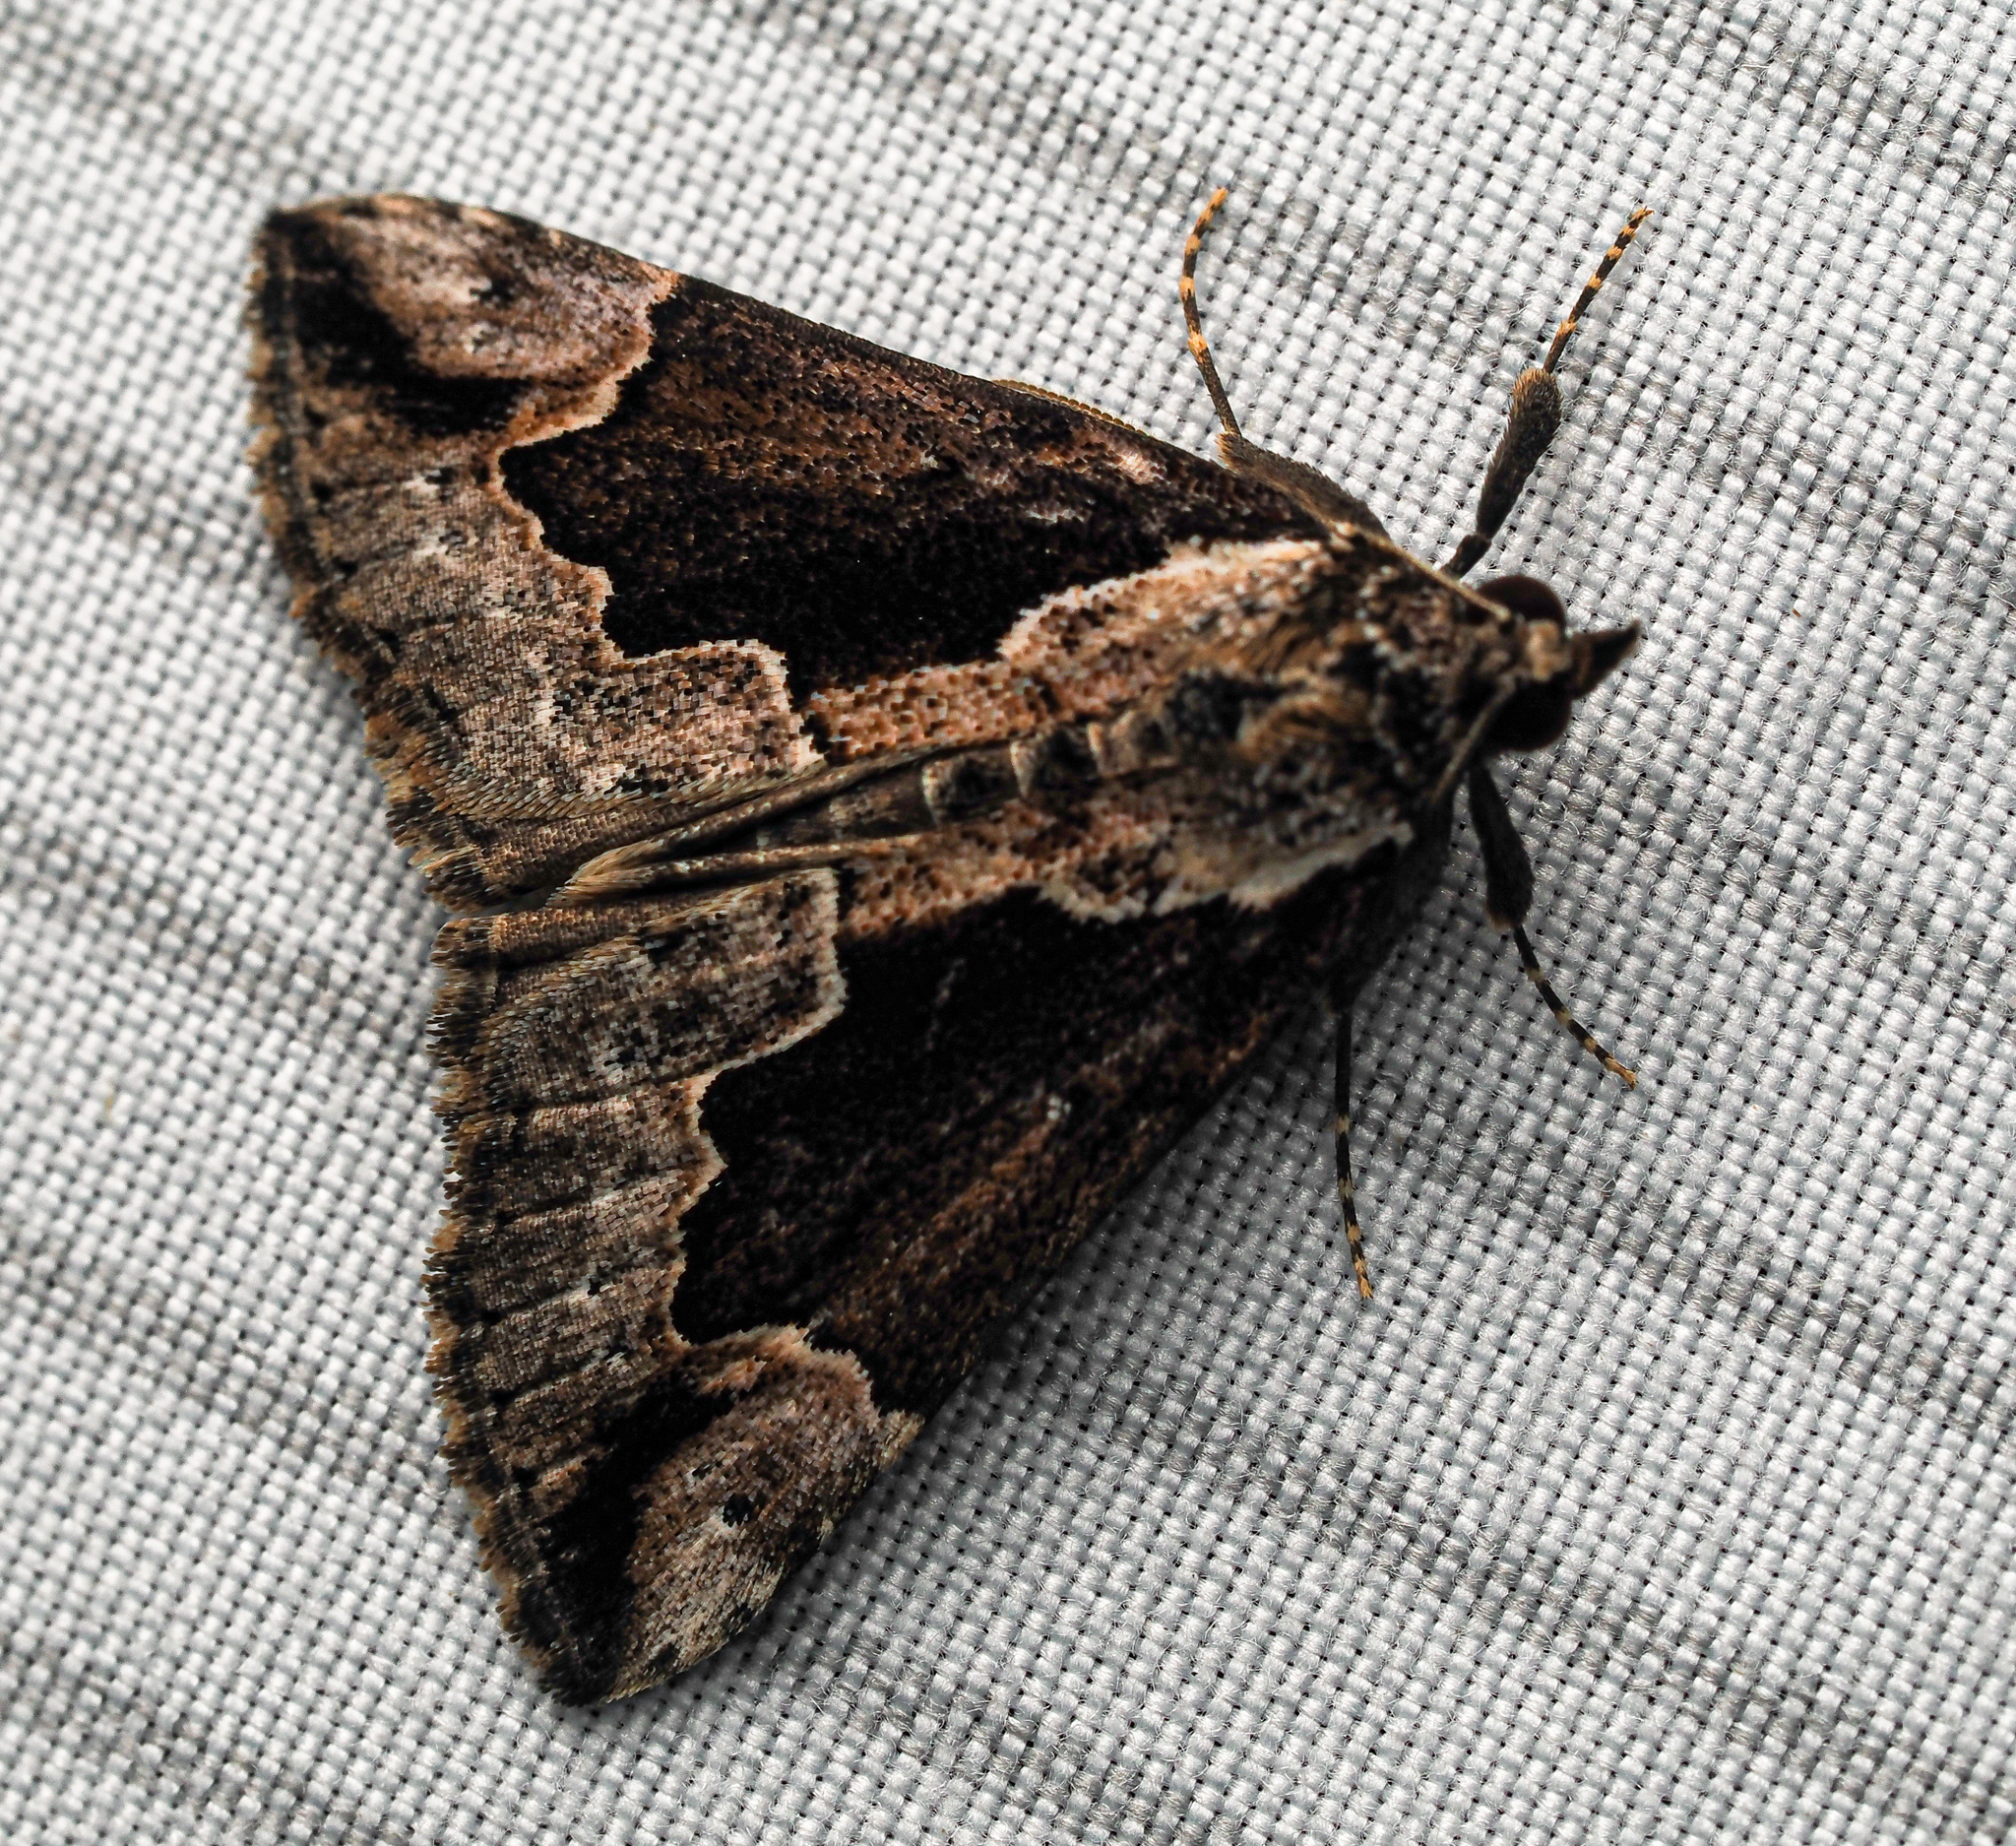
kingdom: Animalia
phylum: Arthropoda
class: Insecta
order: Lepidoptera
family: Erebidae
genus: Hypena
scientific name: Hypena baltimoralis
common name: Baltimore snout
